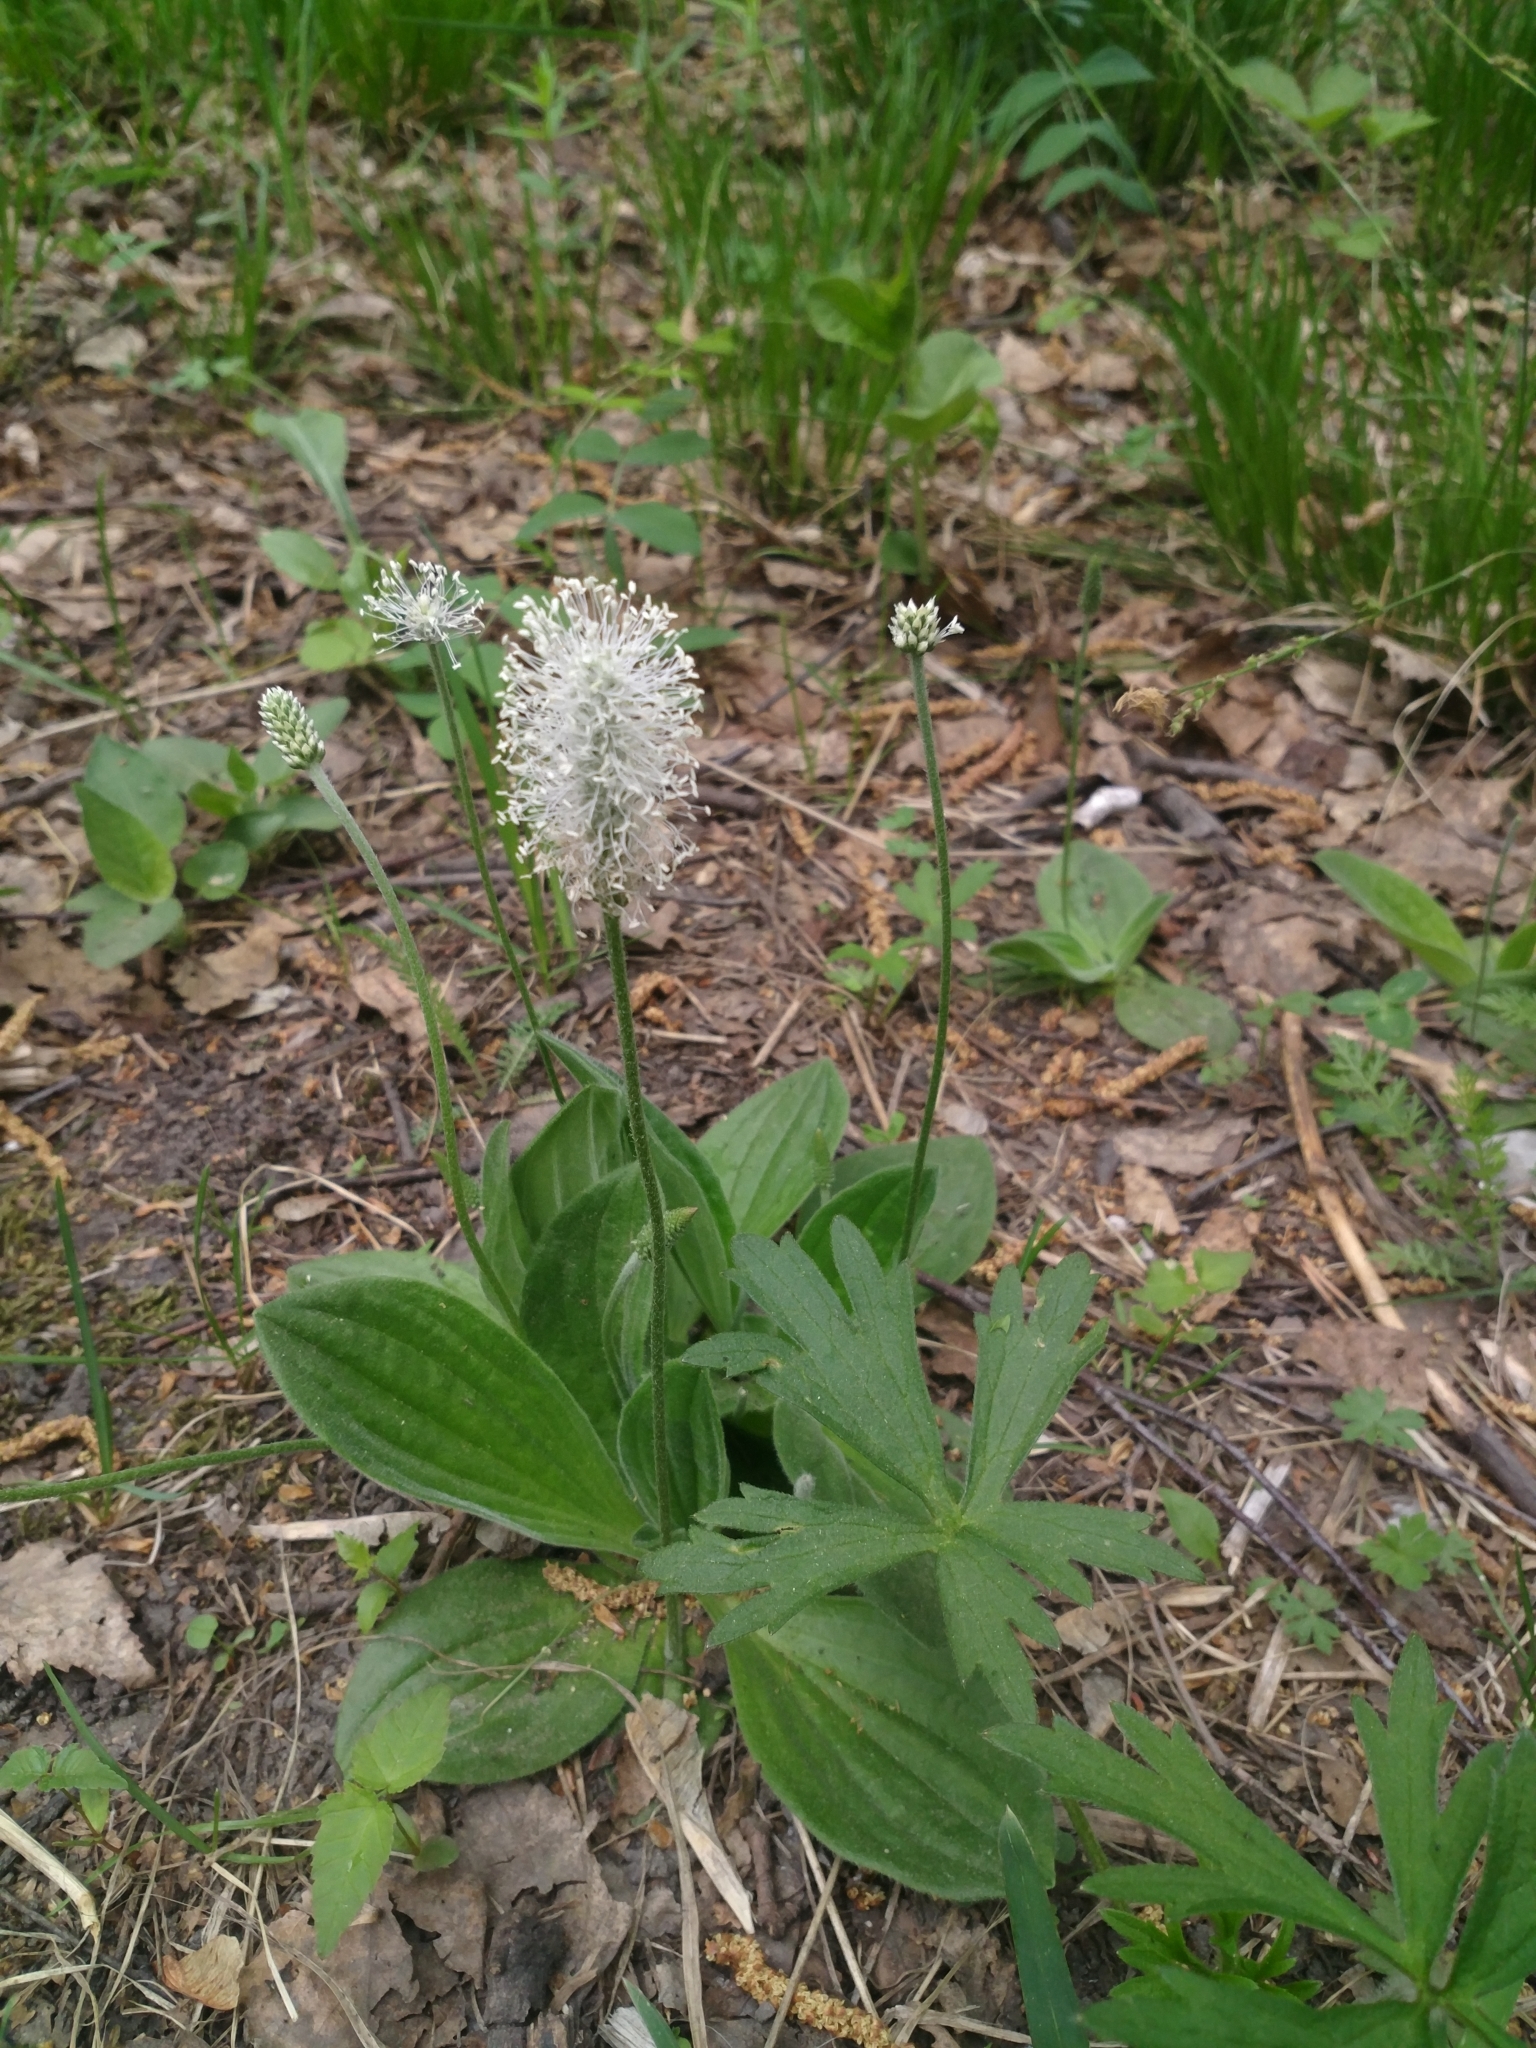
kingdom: Plantae
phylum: Tracheophyta
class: Magnoliopsida
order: Lamiales
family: Plantaginaceae
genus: Plantago
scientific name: Plantago media
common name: Hoary plantain
